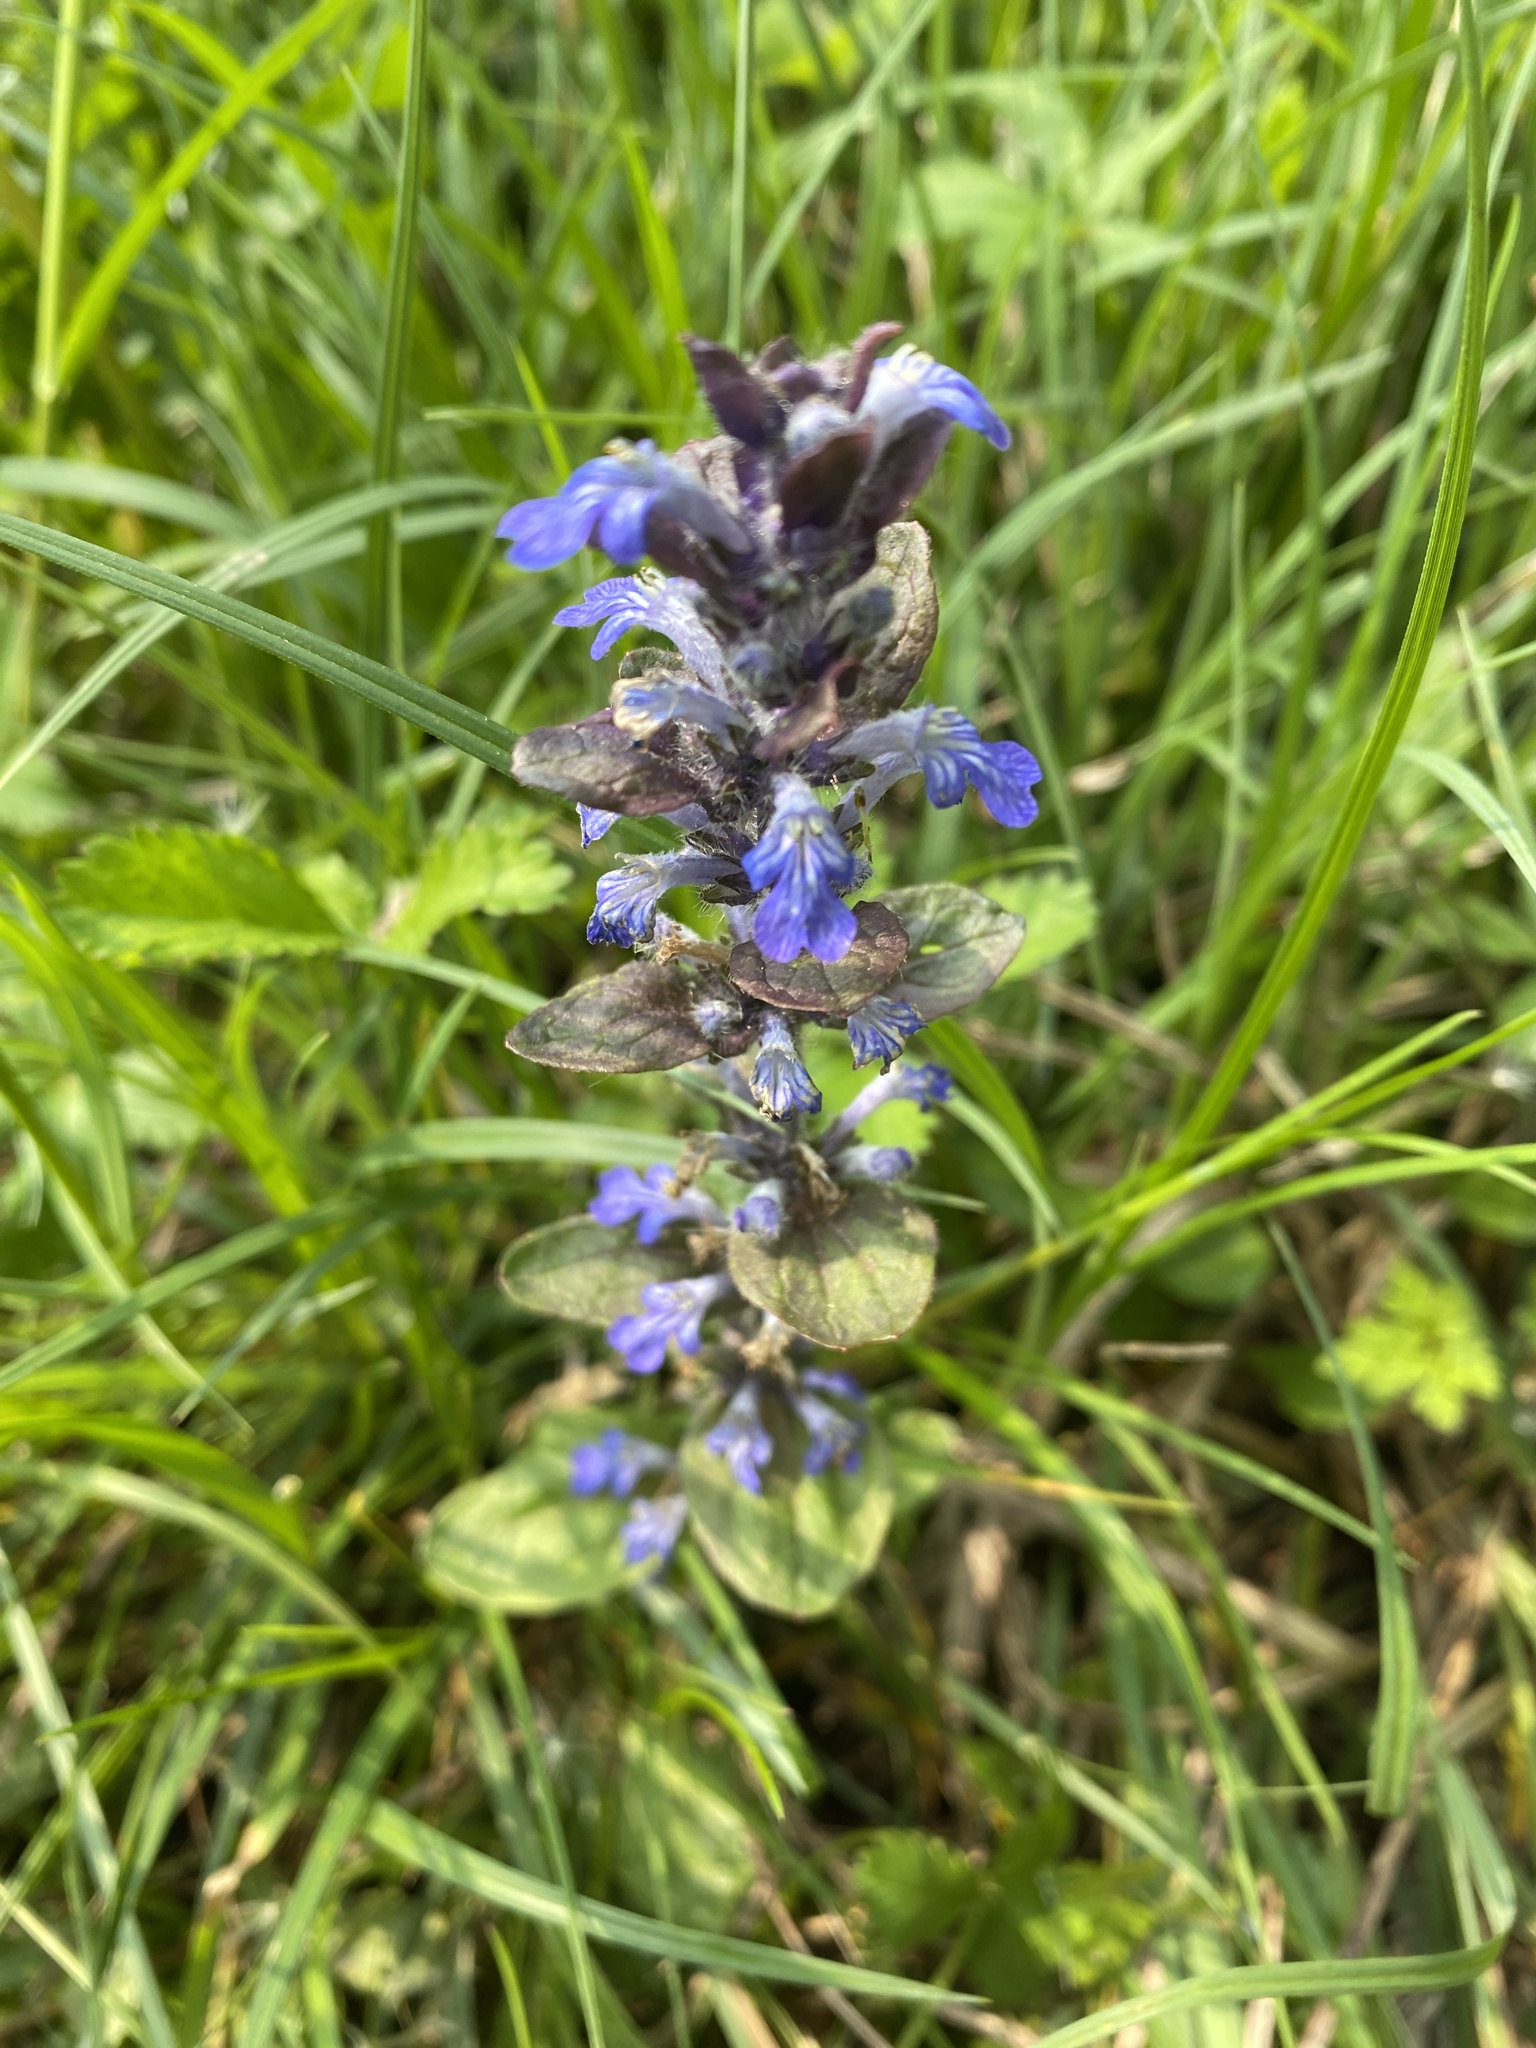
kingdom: Plantae
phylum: Tracheophyta
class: Magnoliopsida
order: Lamiales
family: Lamiaceae
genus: Ajuga
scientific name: Ajuga reptans
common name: Bugle
